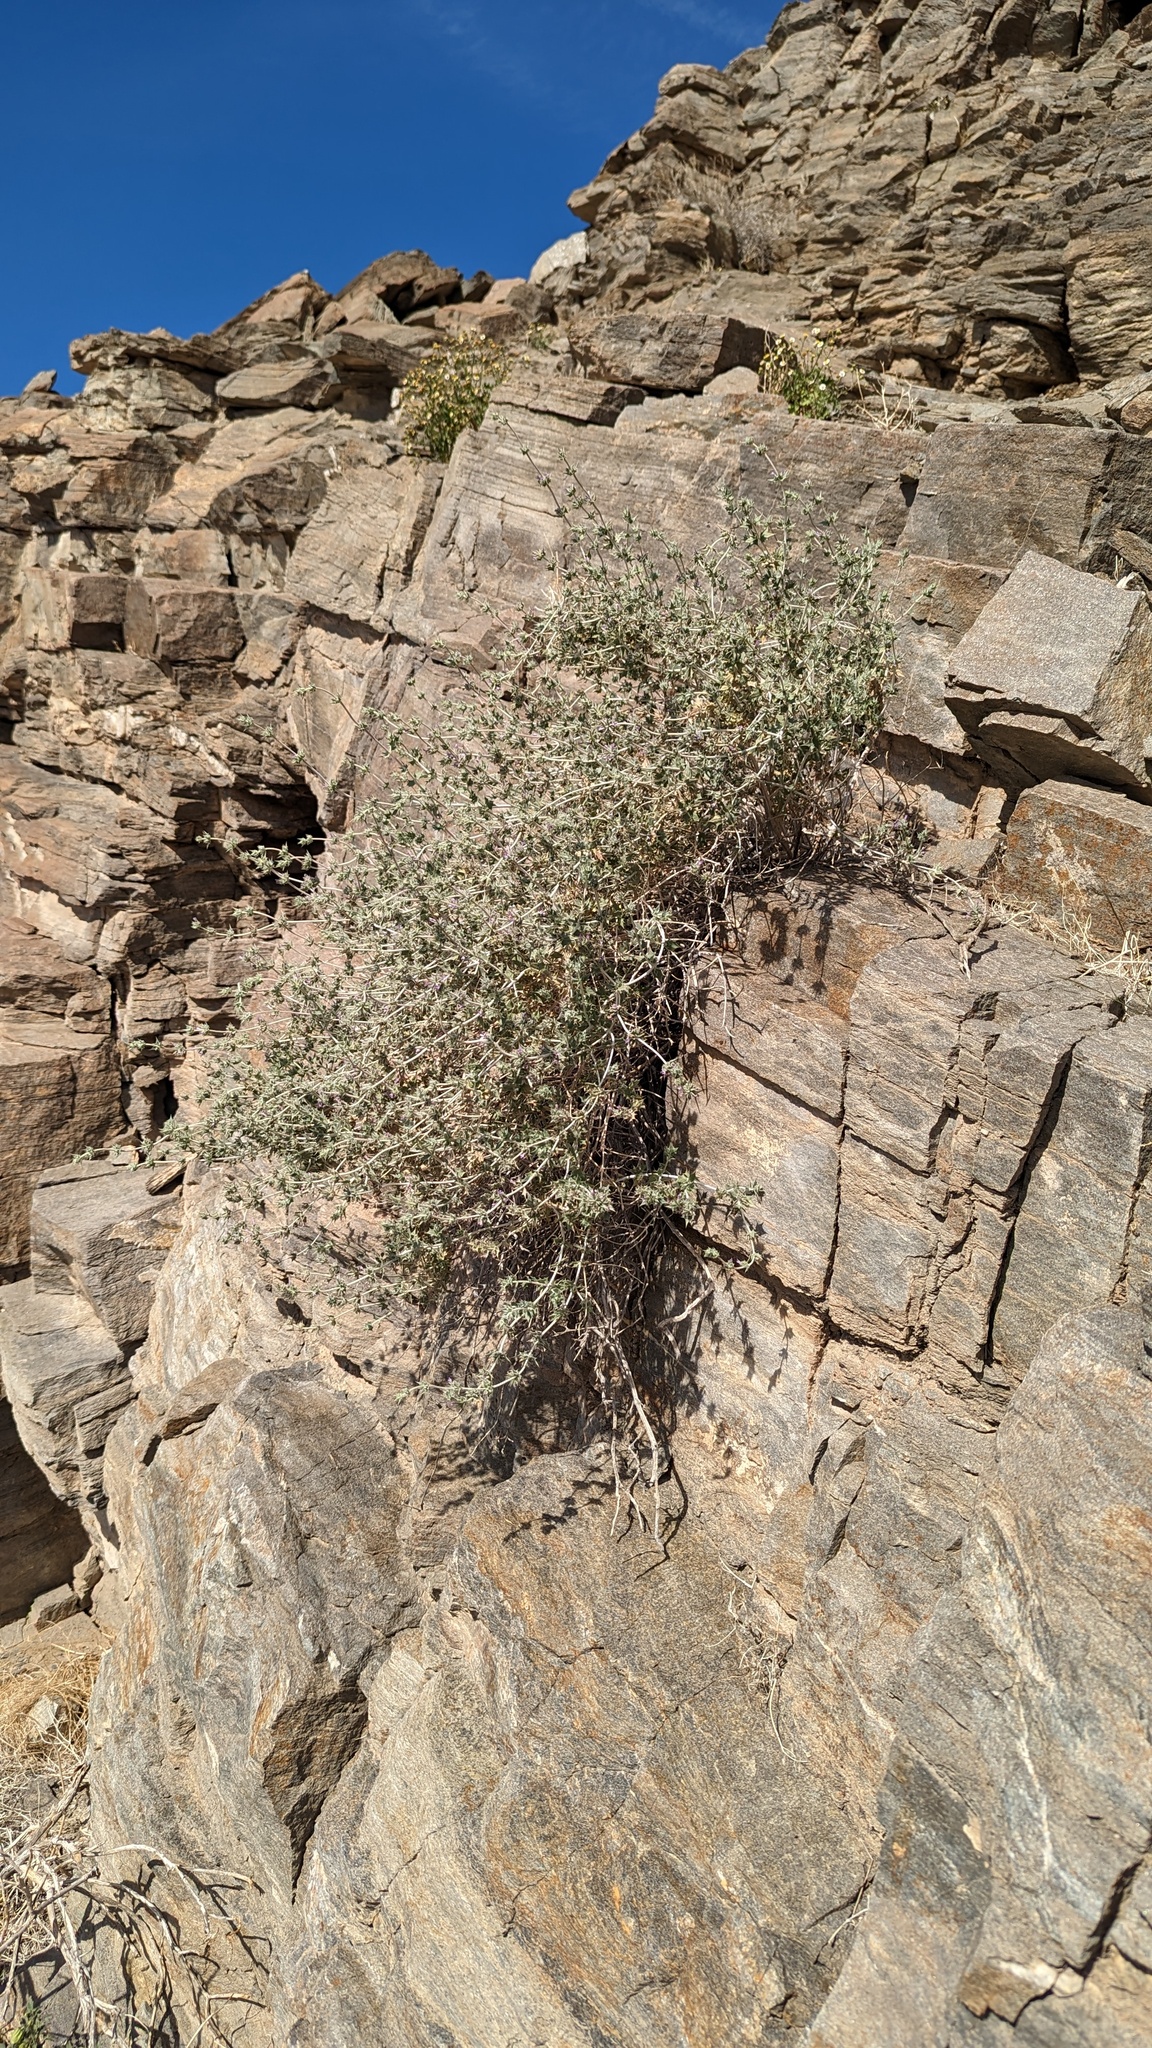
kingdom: Plantae
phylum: Tracheophyta
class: Magnoliopsida
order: Lamiales
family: Lamiaceae
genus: Salvia
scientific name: Salvia greatae
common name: Orocopia sage
